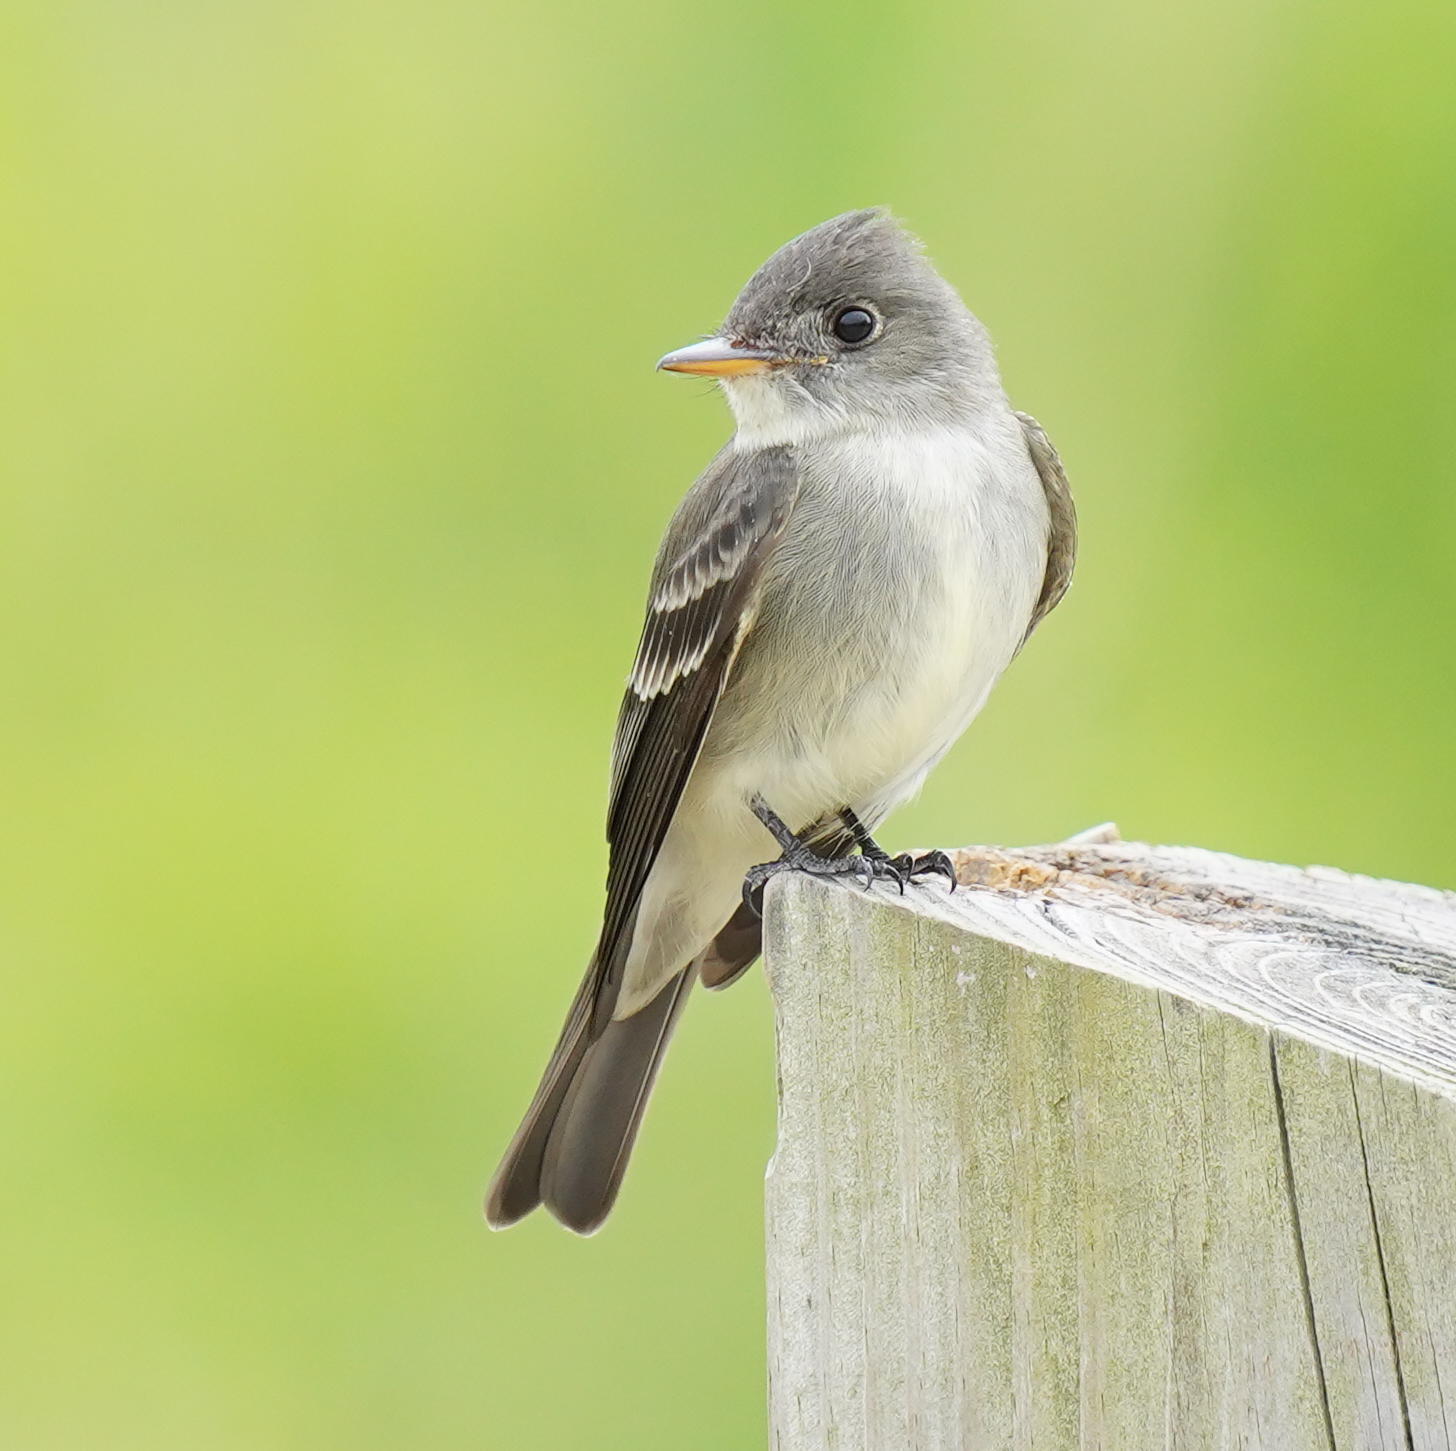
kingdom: Animalia
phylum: Chordata
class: Aves
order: Passeriformes
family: Tyrannidae
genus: Contopus
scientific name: Contopus virens
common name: Eastern wood-pewee
